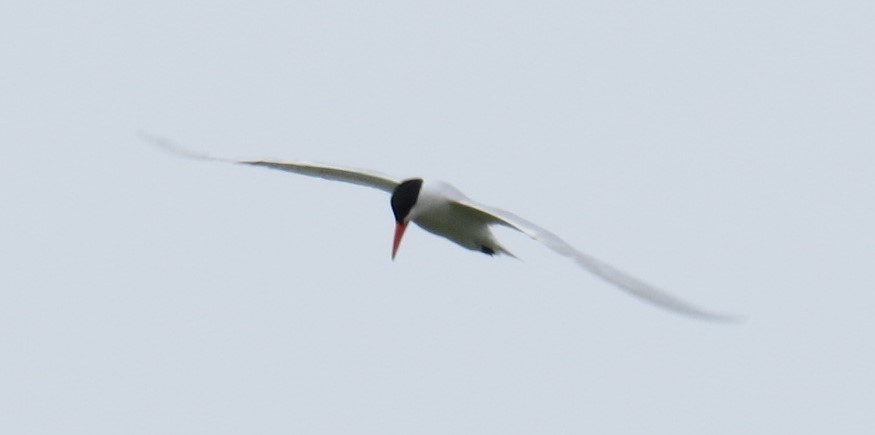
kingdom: Animalia
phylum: Chordata
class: Aves
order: Charadriiformes
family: Laridae
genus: Hydroprogne
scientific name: Hydroprogne caspia
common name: Caspian tern
